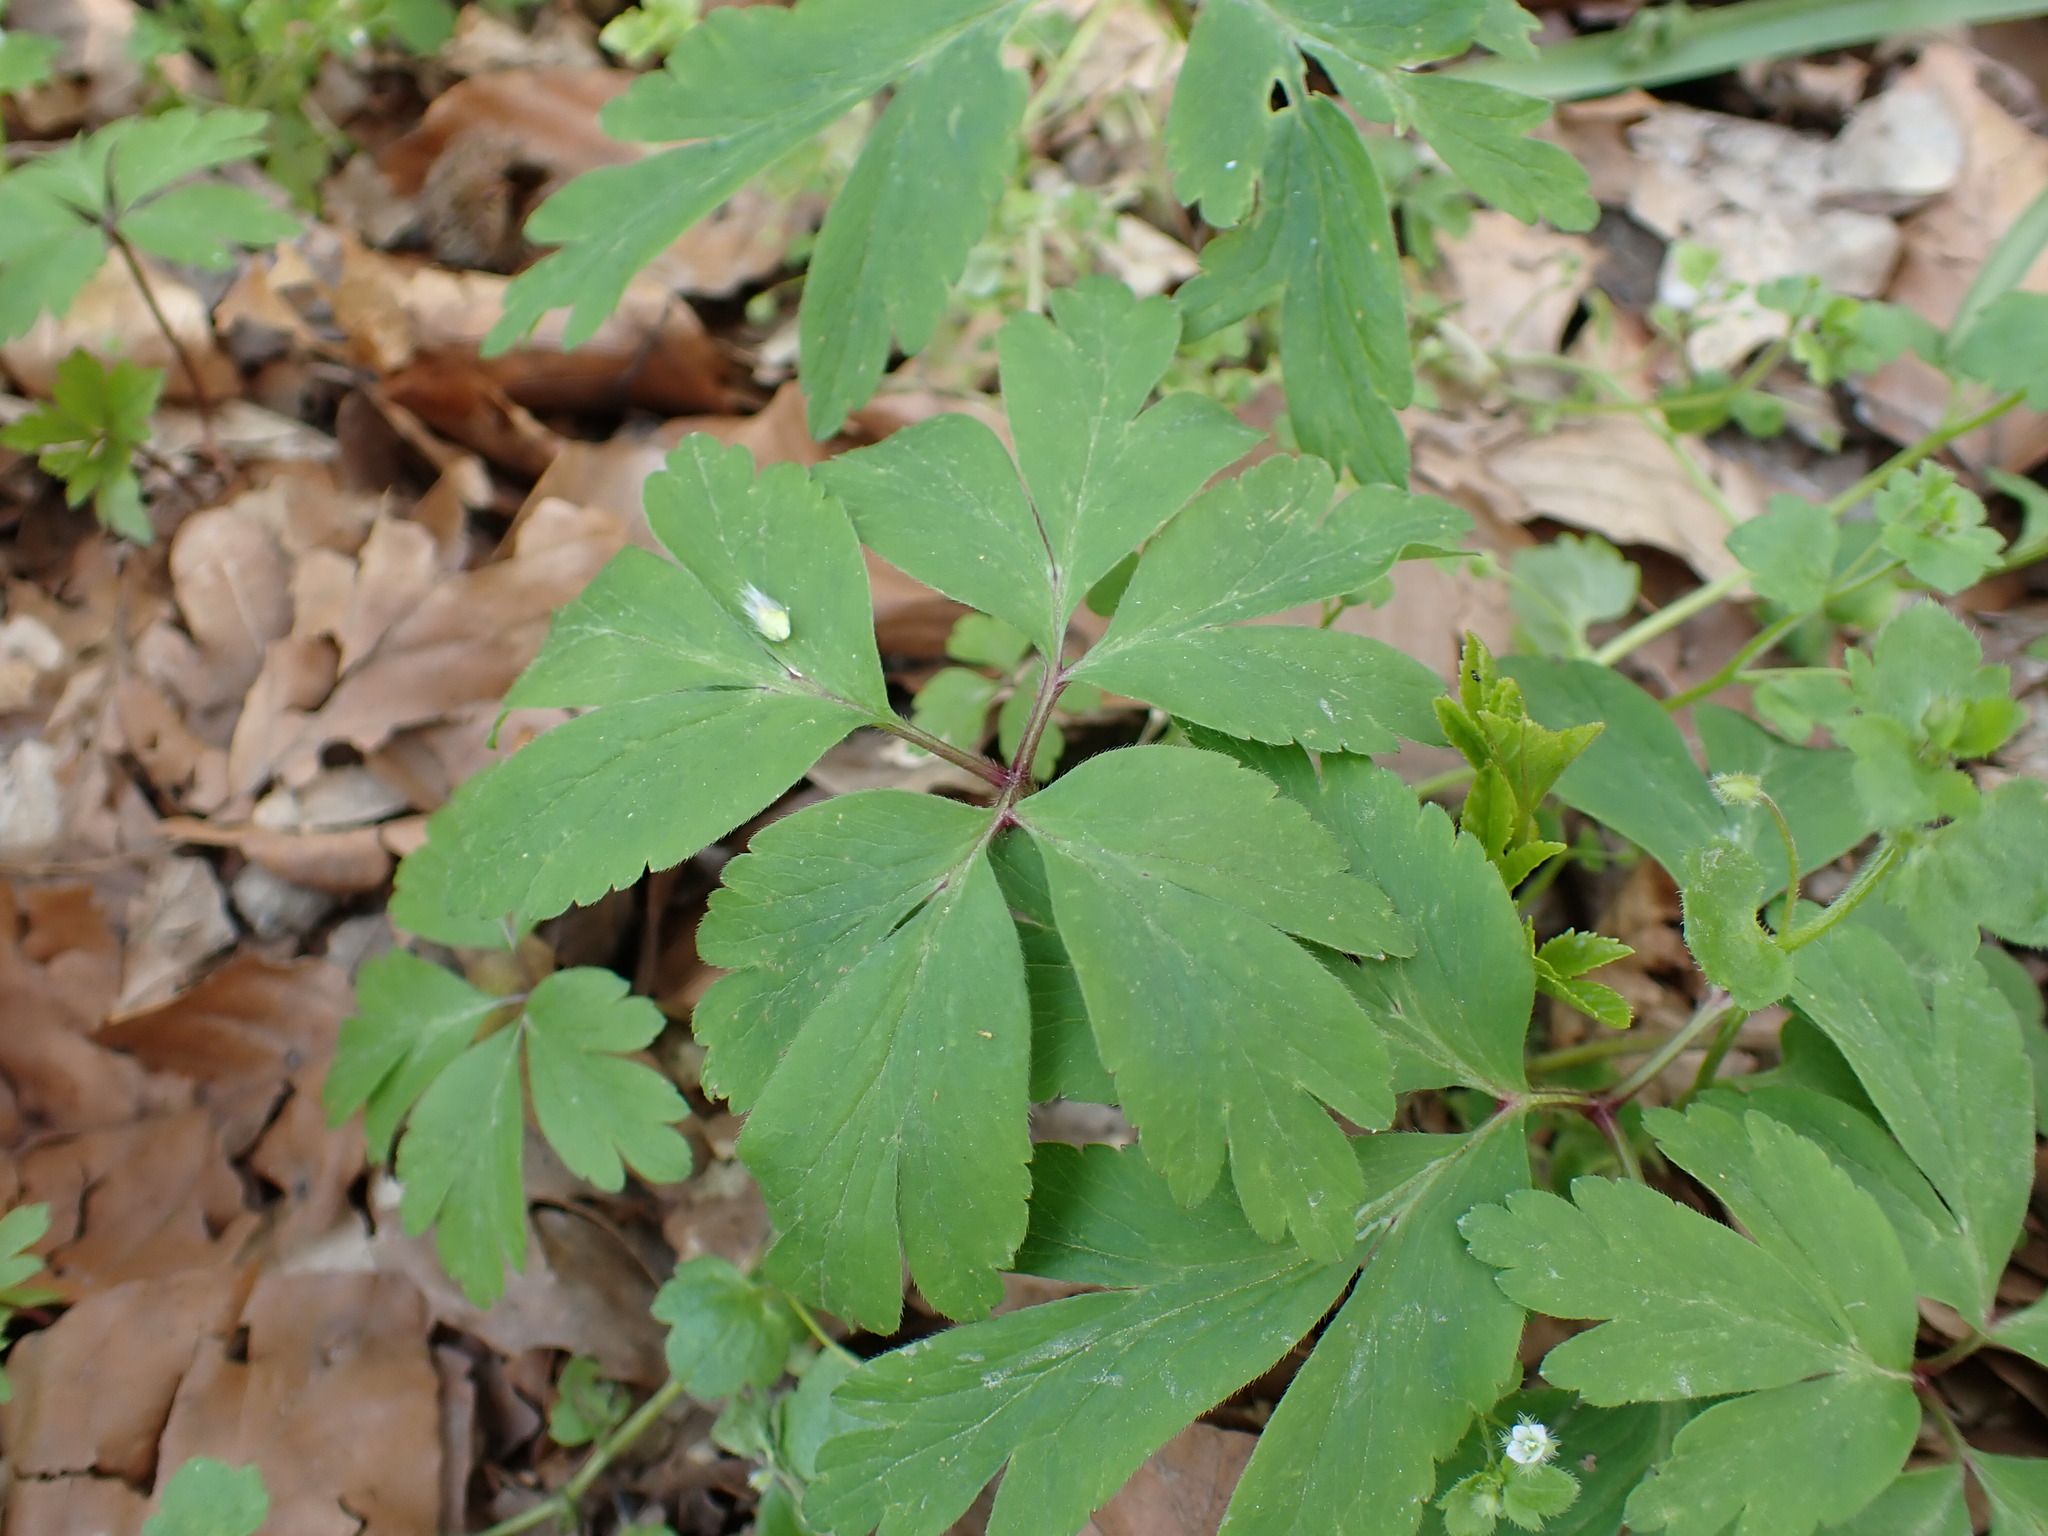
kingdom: Plantae
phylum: Tracheophyta
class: Magnoliopsida
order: Ranunculales
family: Ranunculaceae
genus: Anemone
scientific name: Anemone nemorosa
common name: Wood anemone
